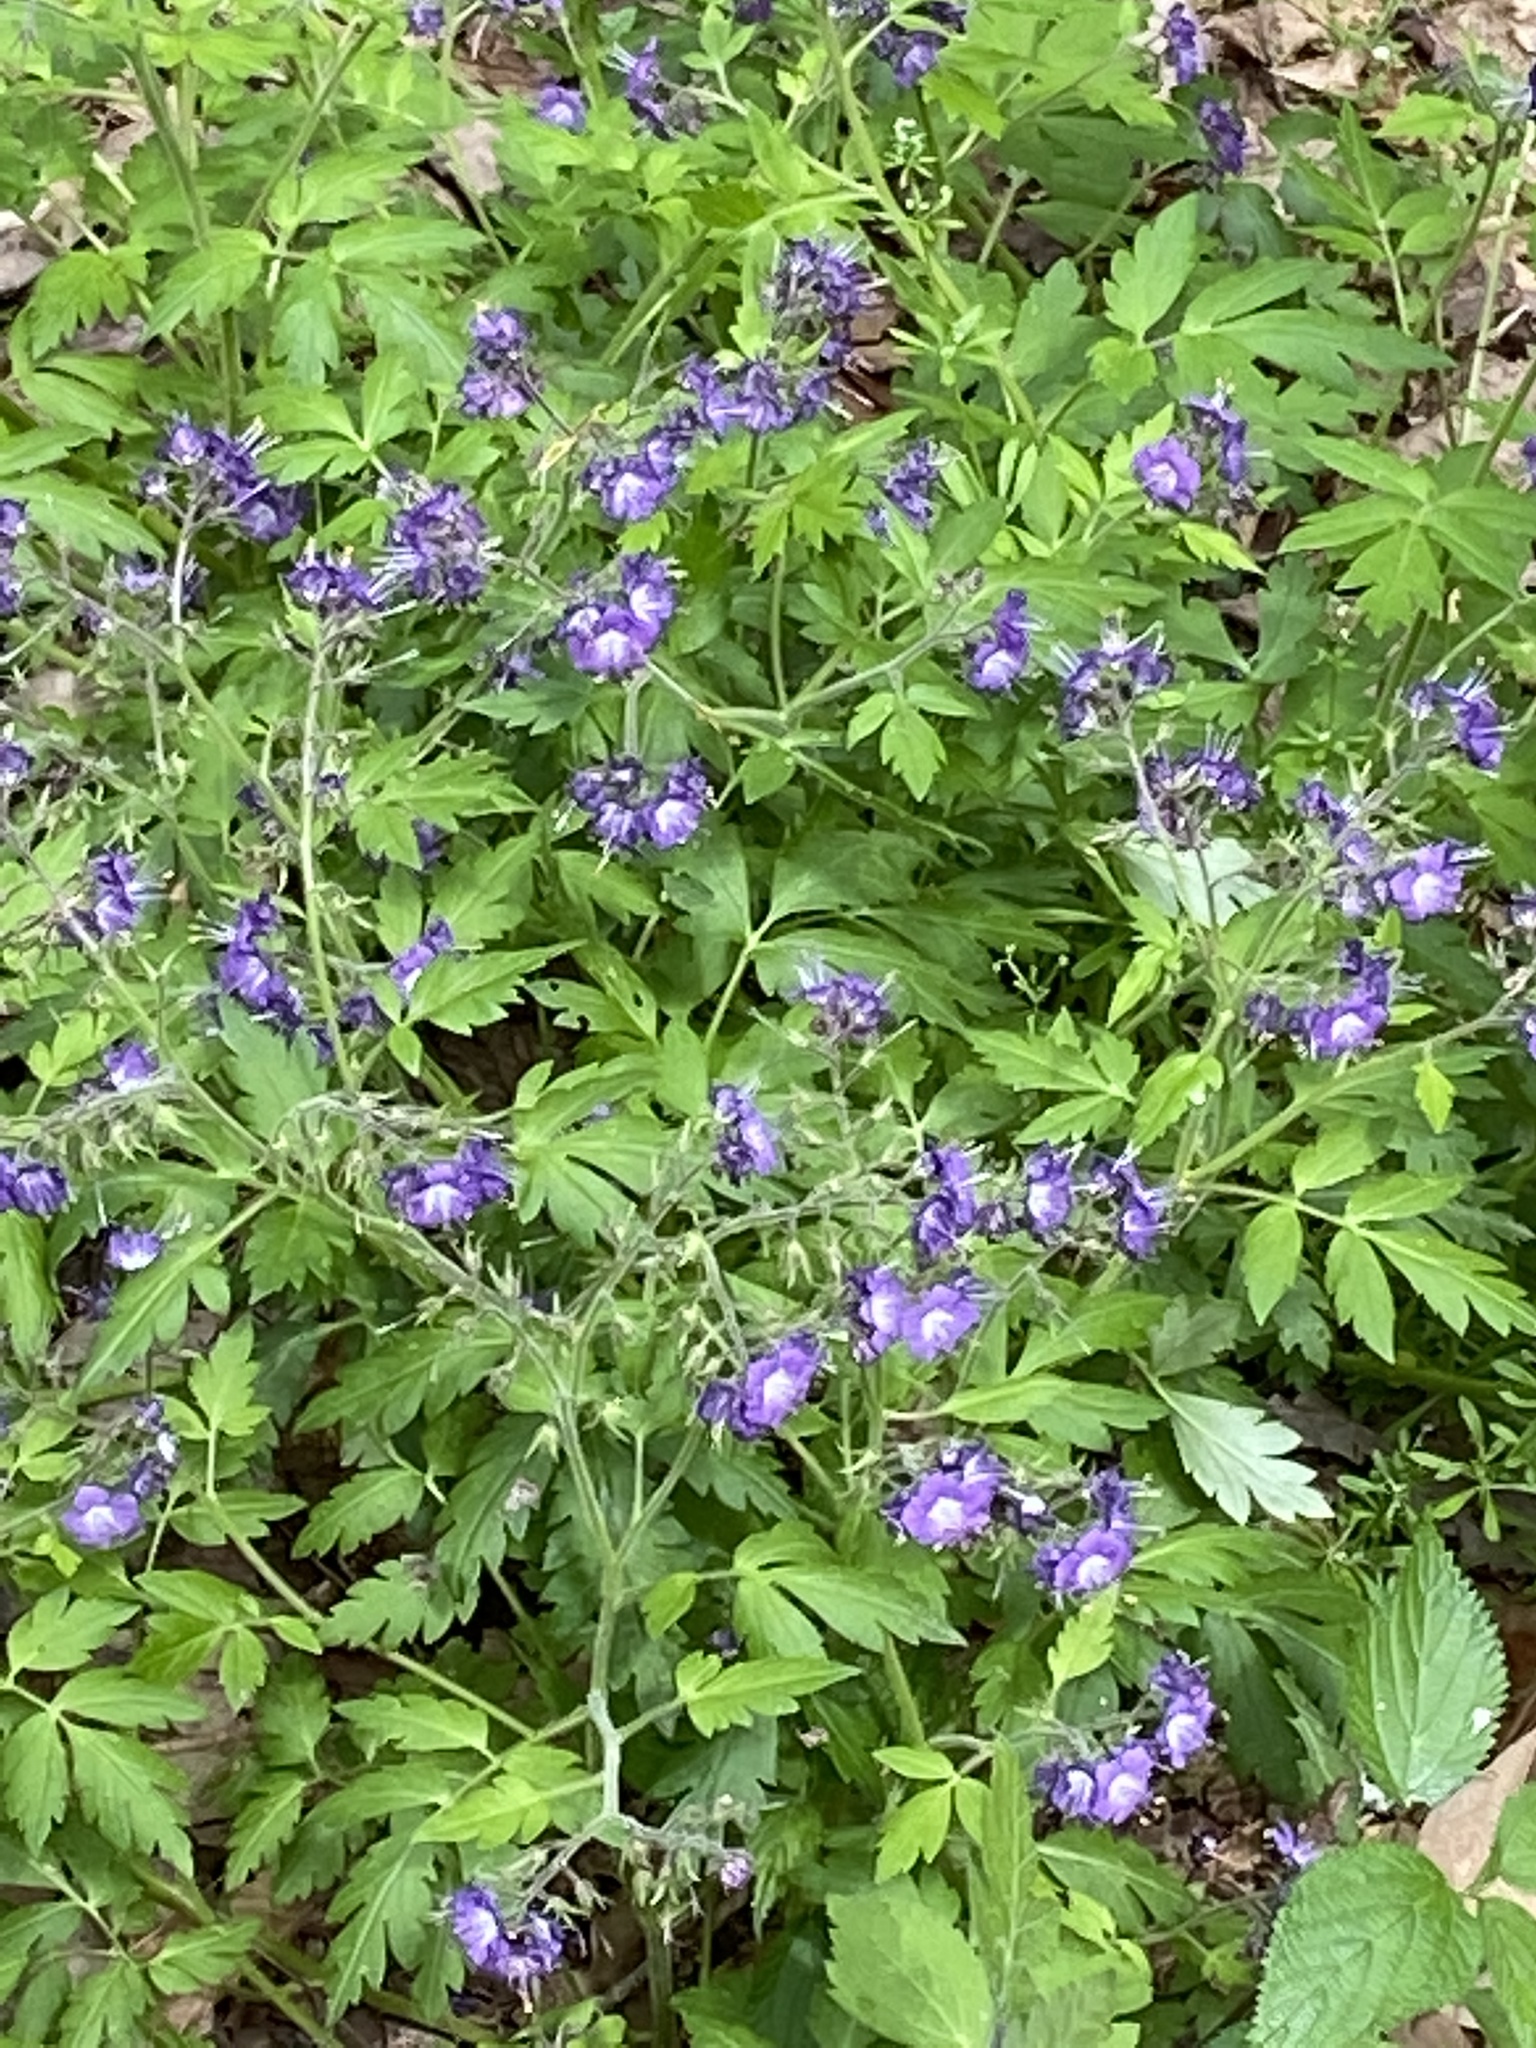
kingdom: Plantae
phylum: Tracheophyta
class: Magnoliopsida
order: Boraginales
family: Hydrophyllaceae
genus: Phacelia
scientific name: Phacelia bipinnatifida
